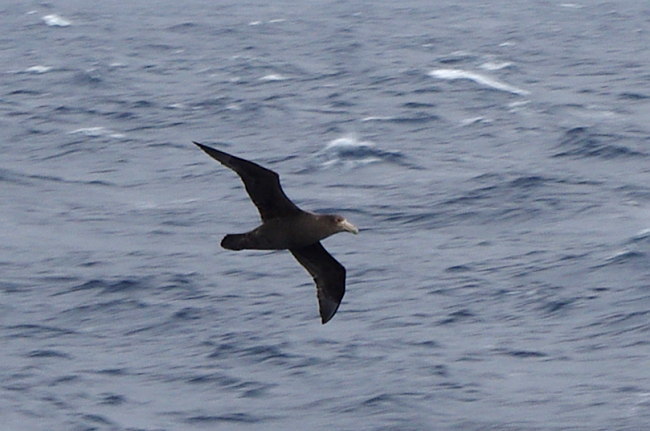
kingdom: Animalia
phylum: Chordata
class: Aves
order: Procellariiformes
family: Procellariidae
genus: Macronectes
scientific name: Macronectes giganteus
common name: Southern giant petrel
